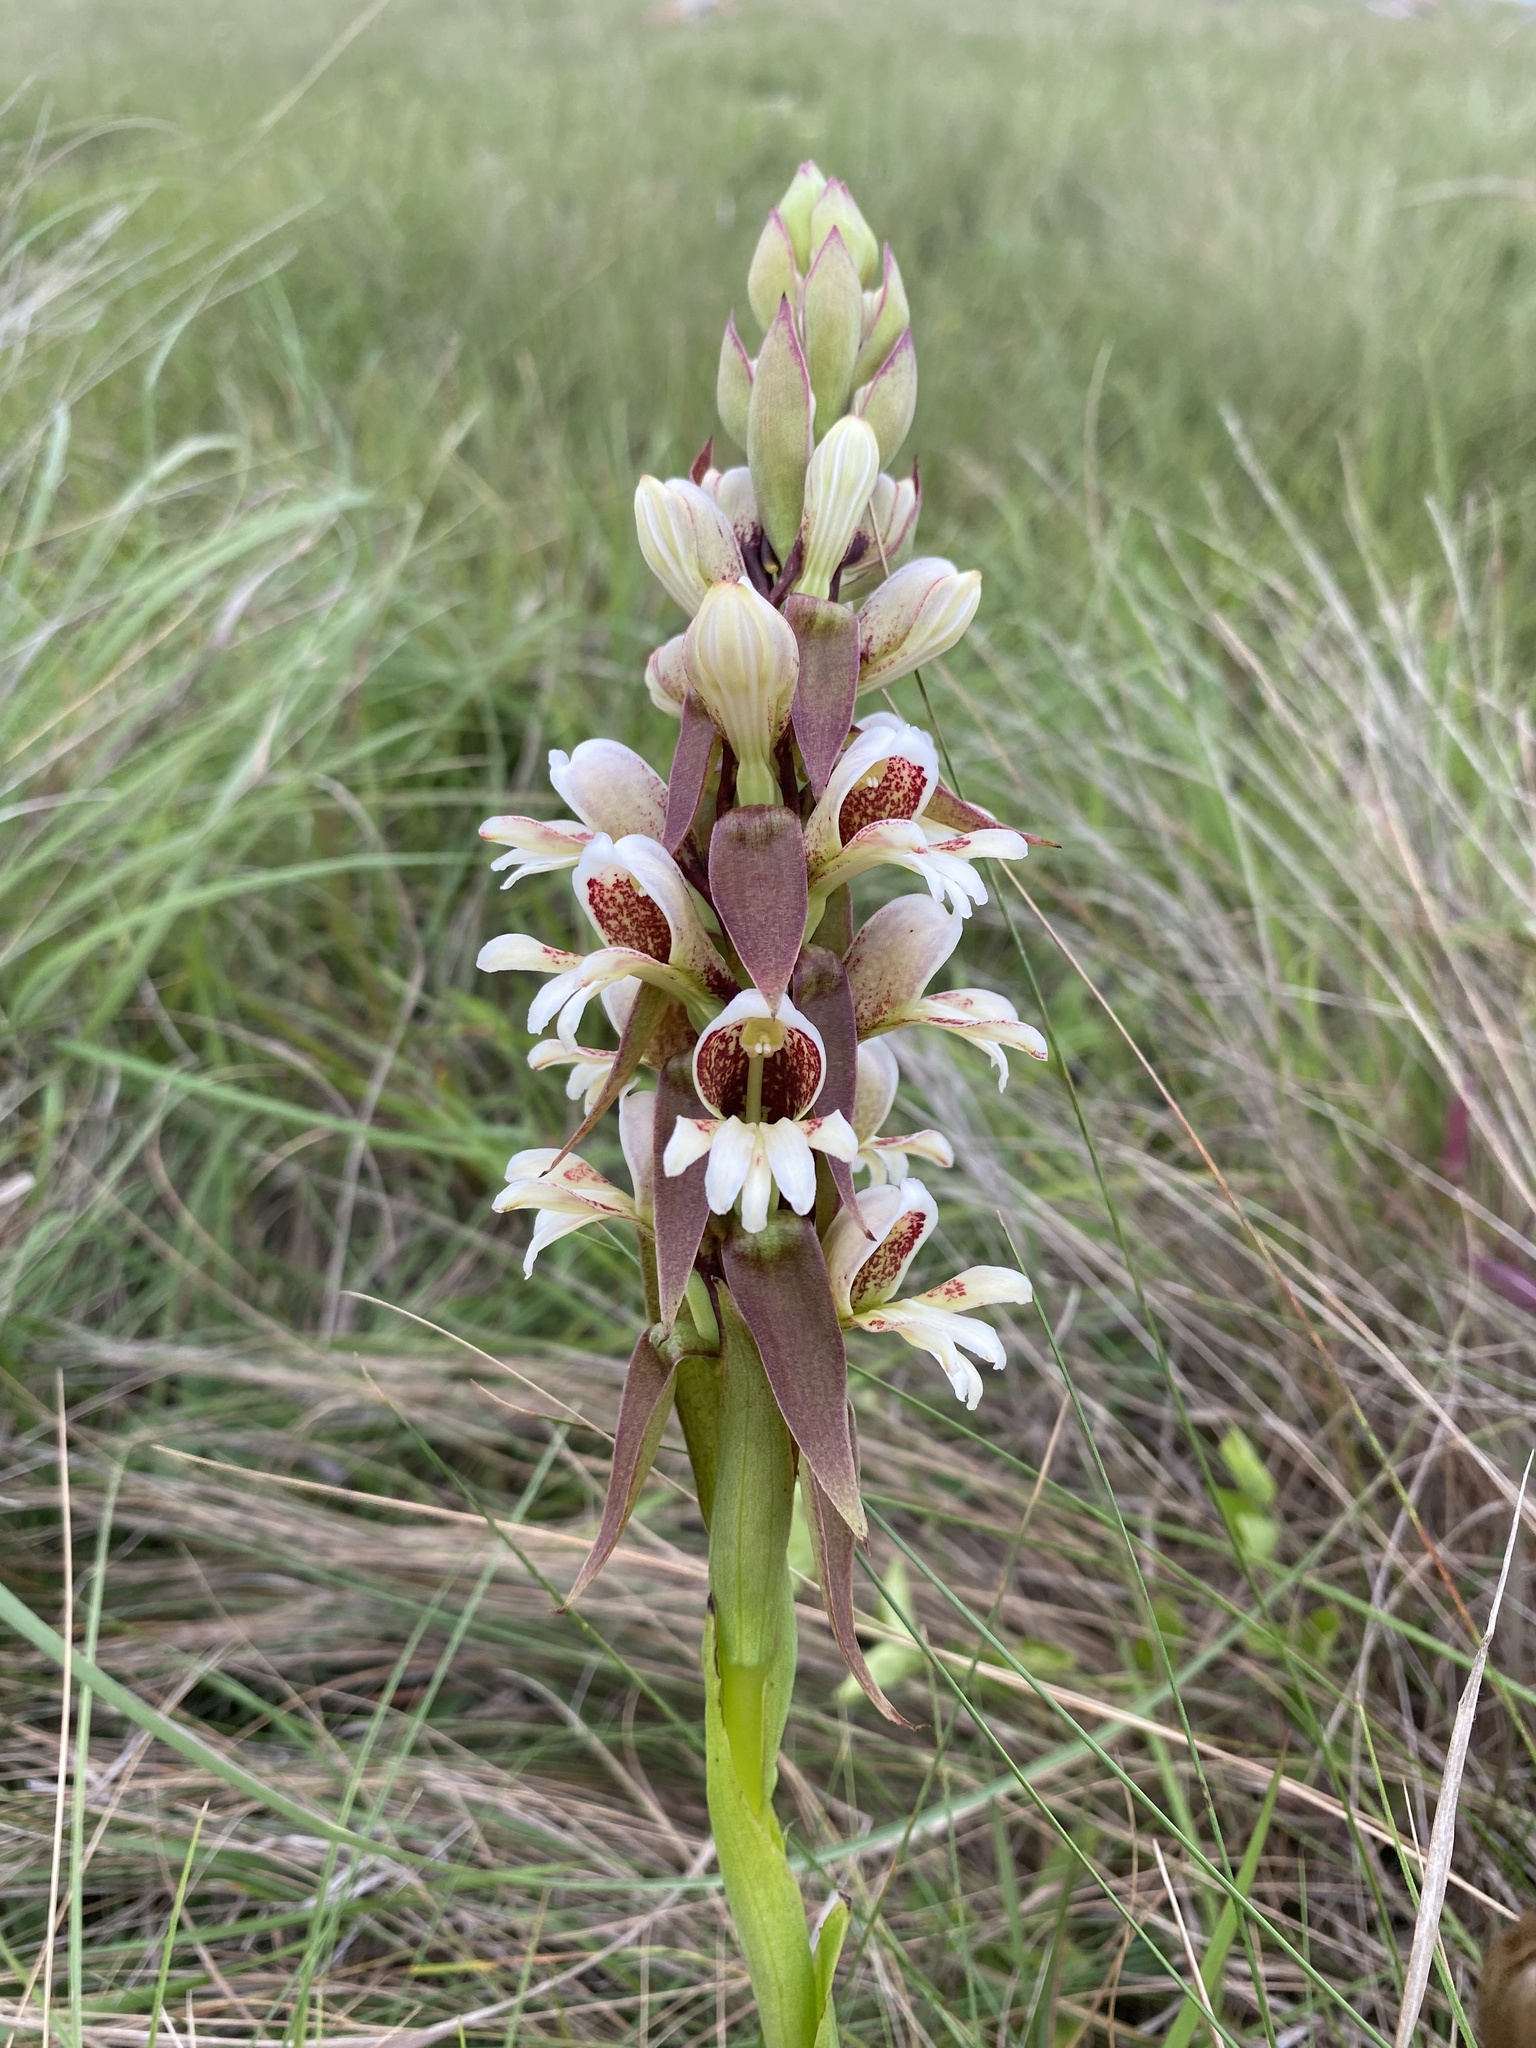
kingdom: Plantae
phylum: Tracheophyta
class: Liliopsida
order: Asparagales
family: Orchidaceae
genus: Satyrium
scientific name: Satyrium sphaerocarpum
